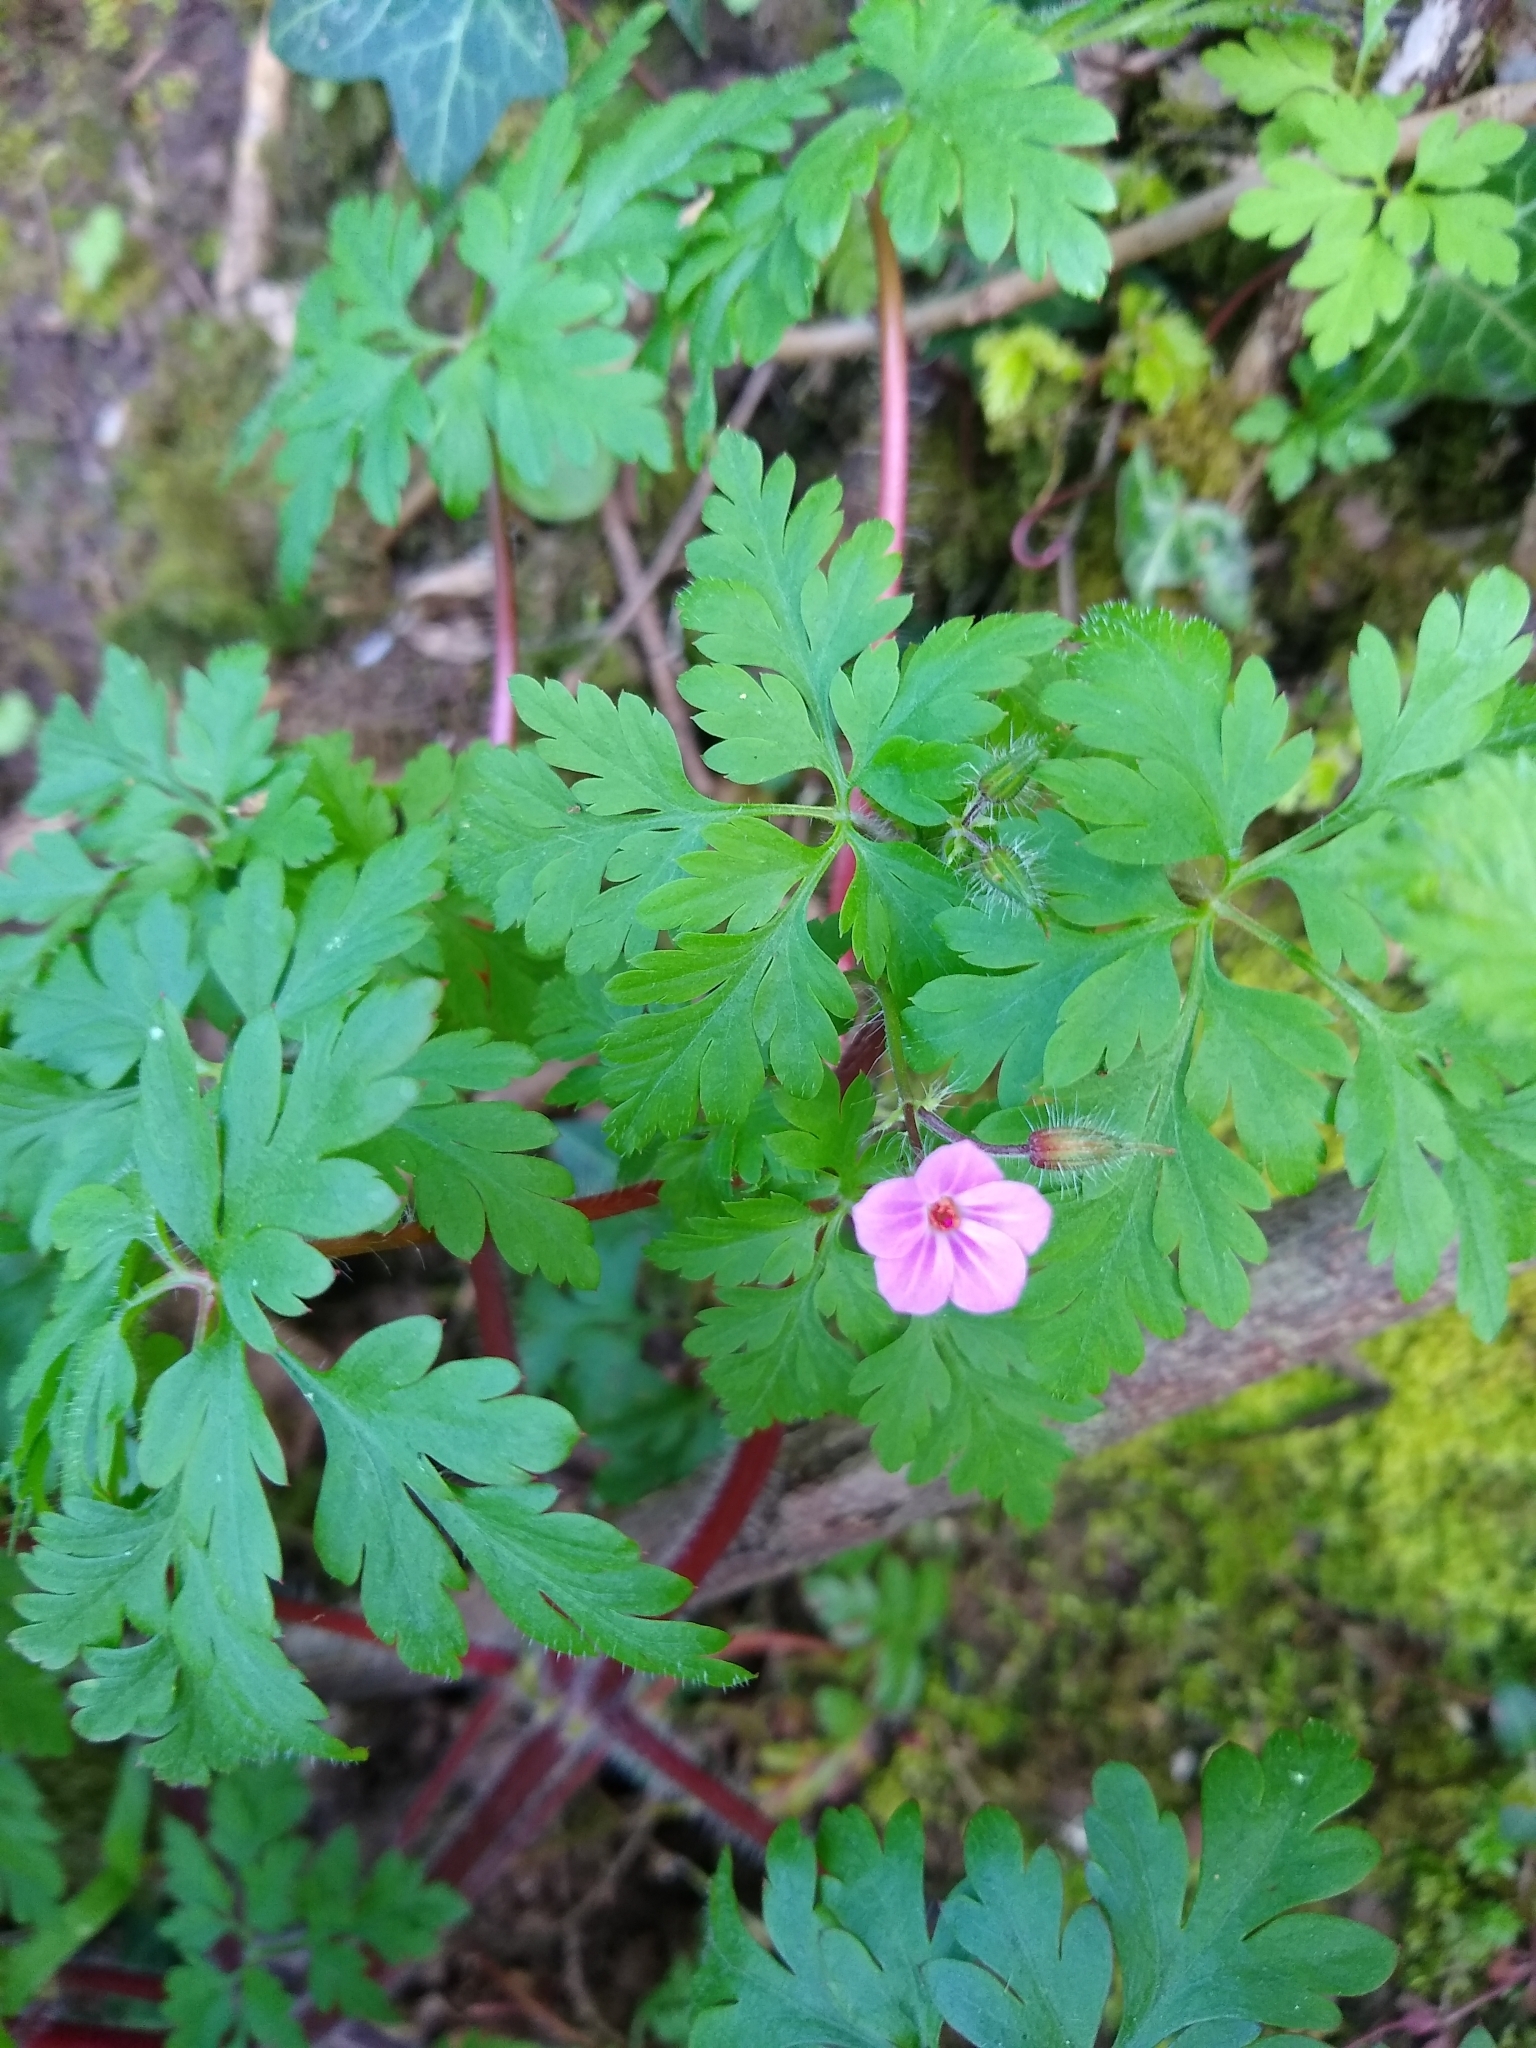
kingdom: Plantae
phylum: Tracheophyta
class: Magnoliopsida
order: Geraniales
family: Geraniaceae
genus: Geranium
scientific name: Geranium robertianum
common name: Herb-robert
